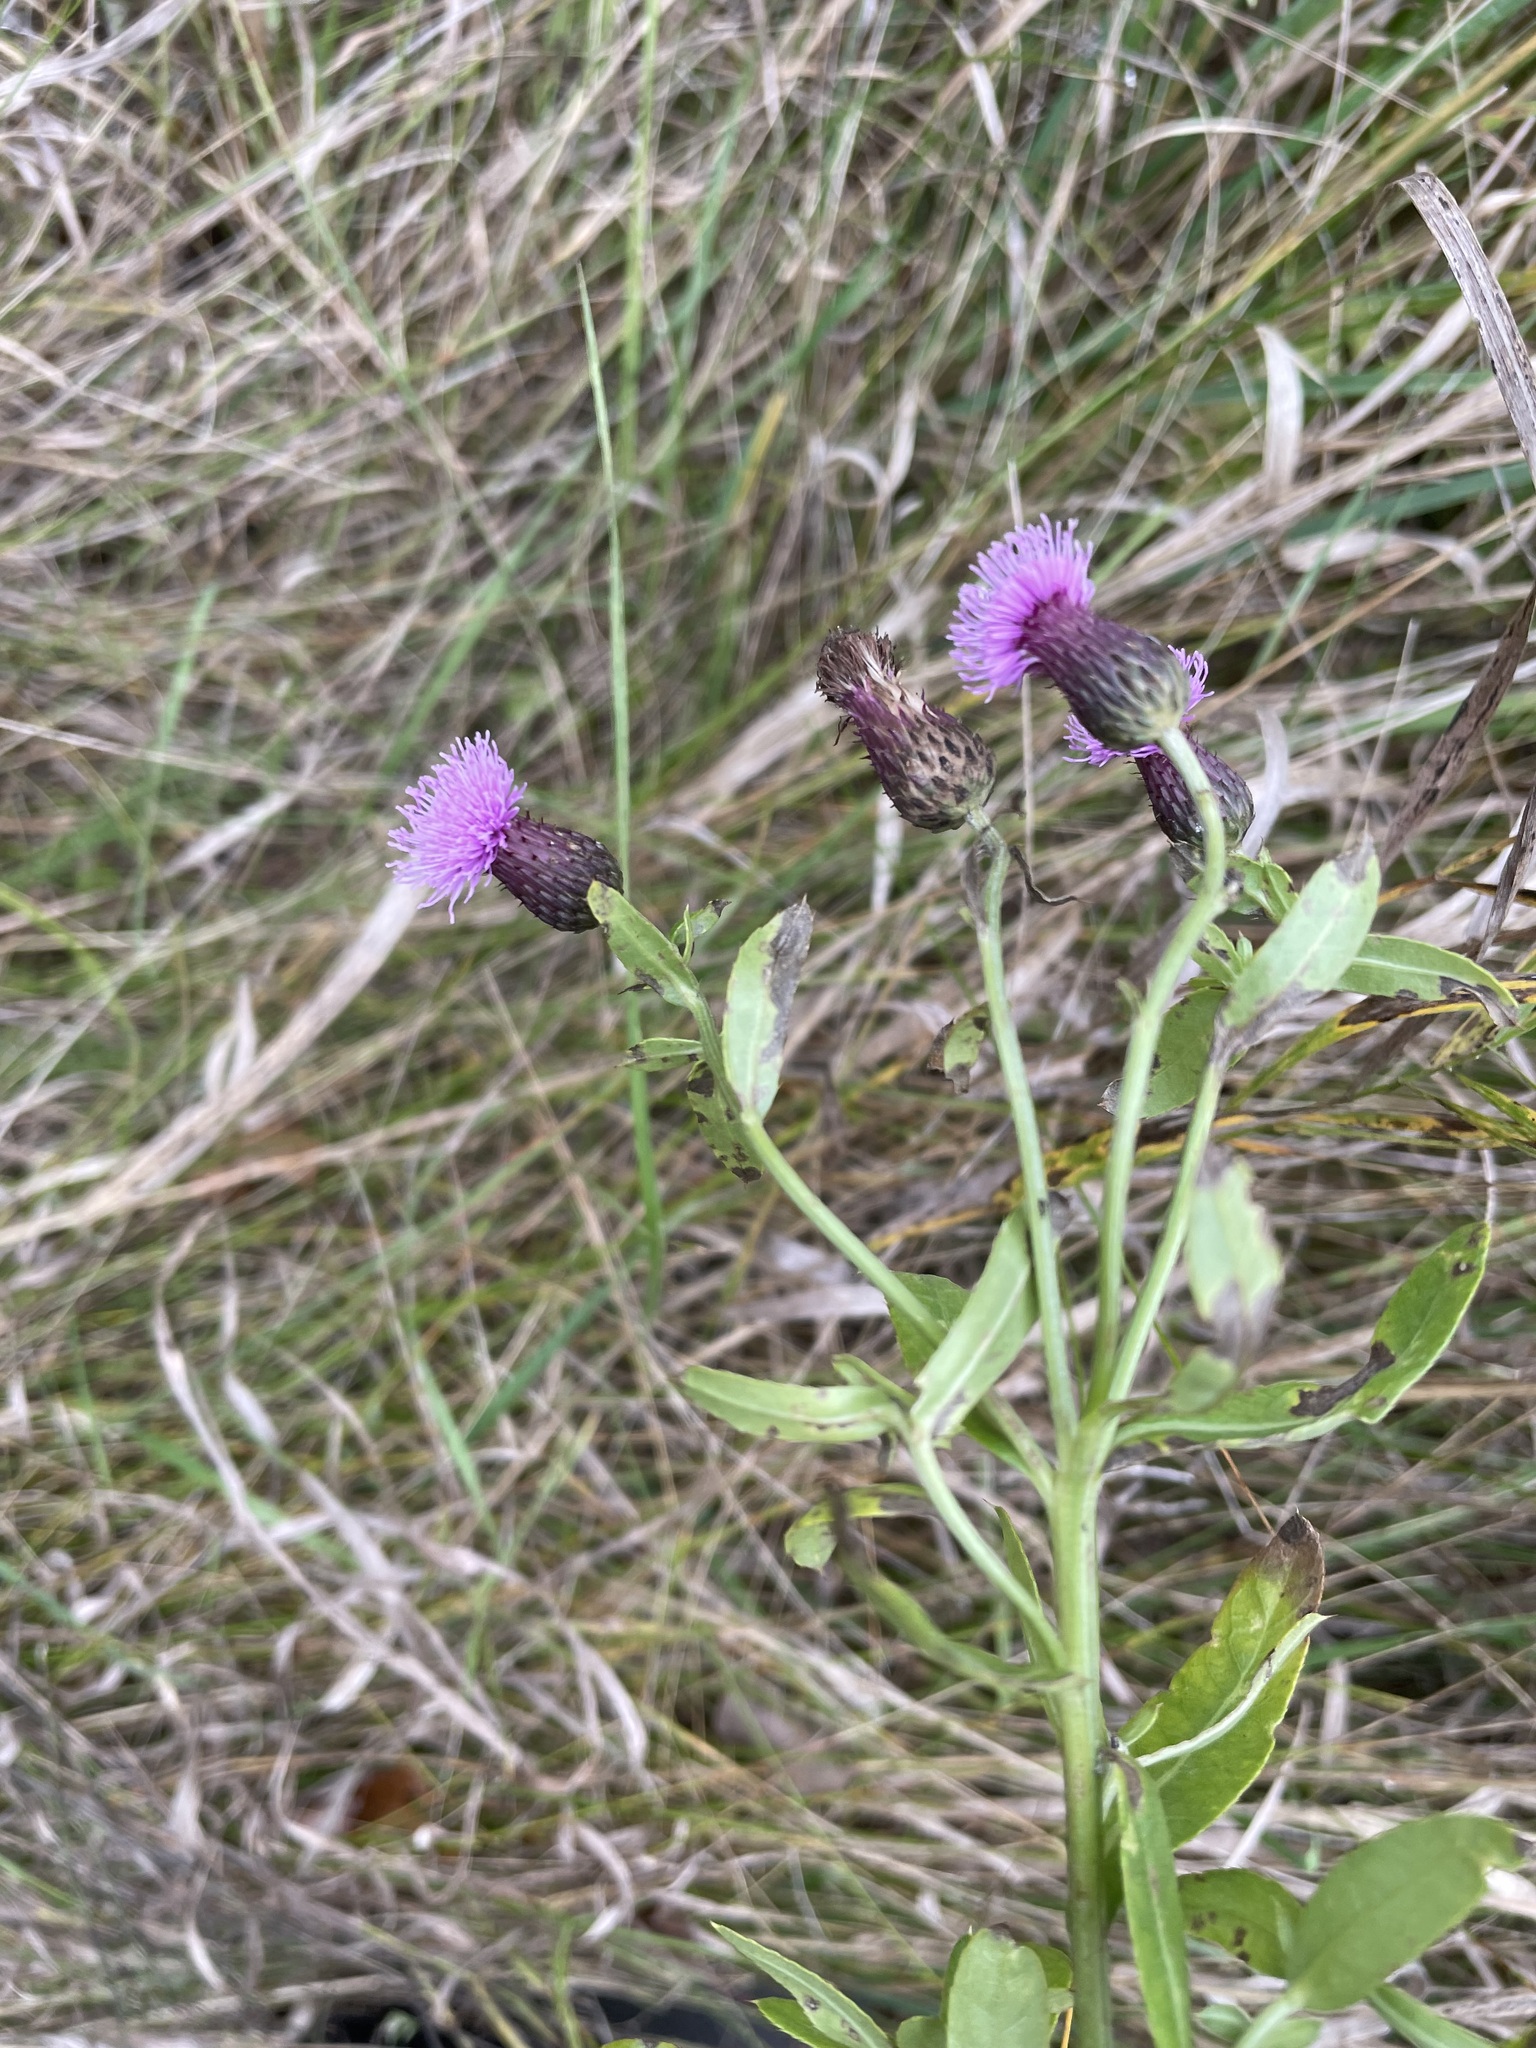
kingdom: Plantae
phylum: Tracheophyta
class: Magnoliopsida
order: Asterales
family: Asteraceae
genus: Cirsium
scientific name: Cirsium arvense
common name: Creeping thistle
